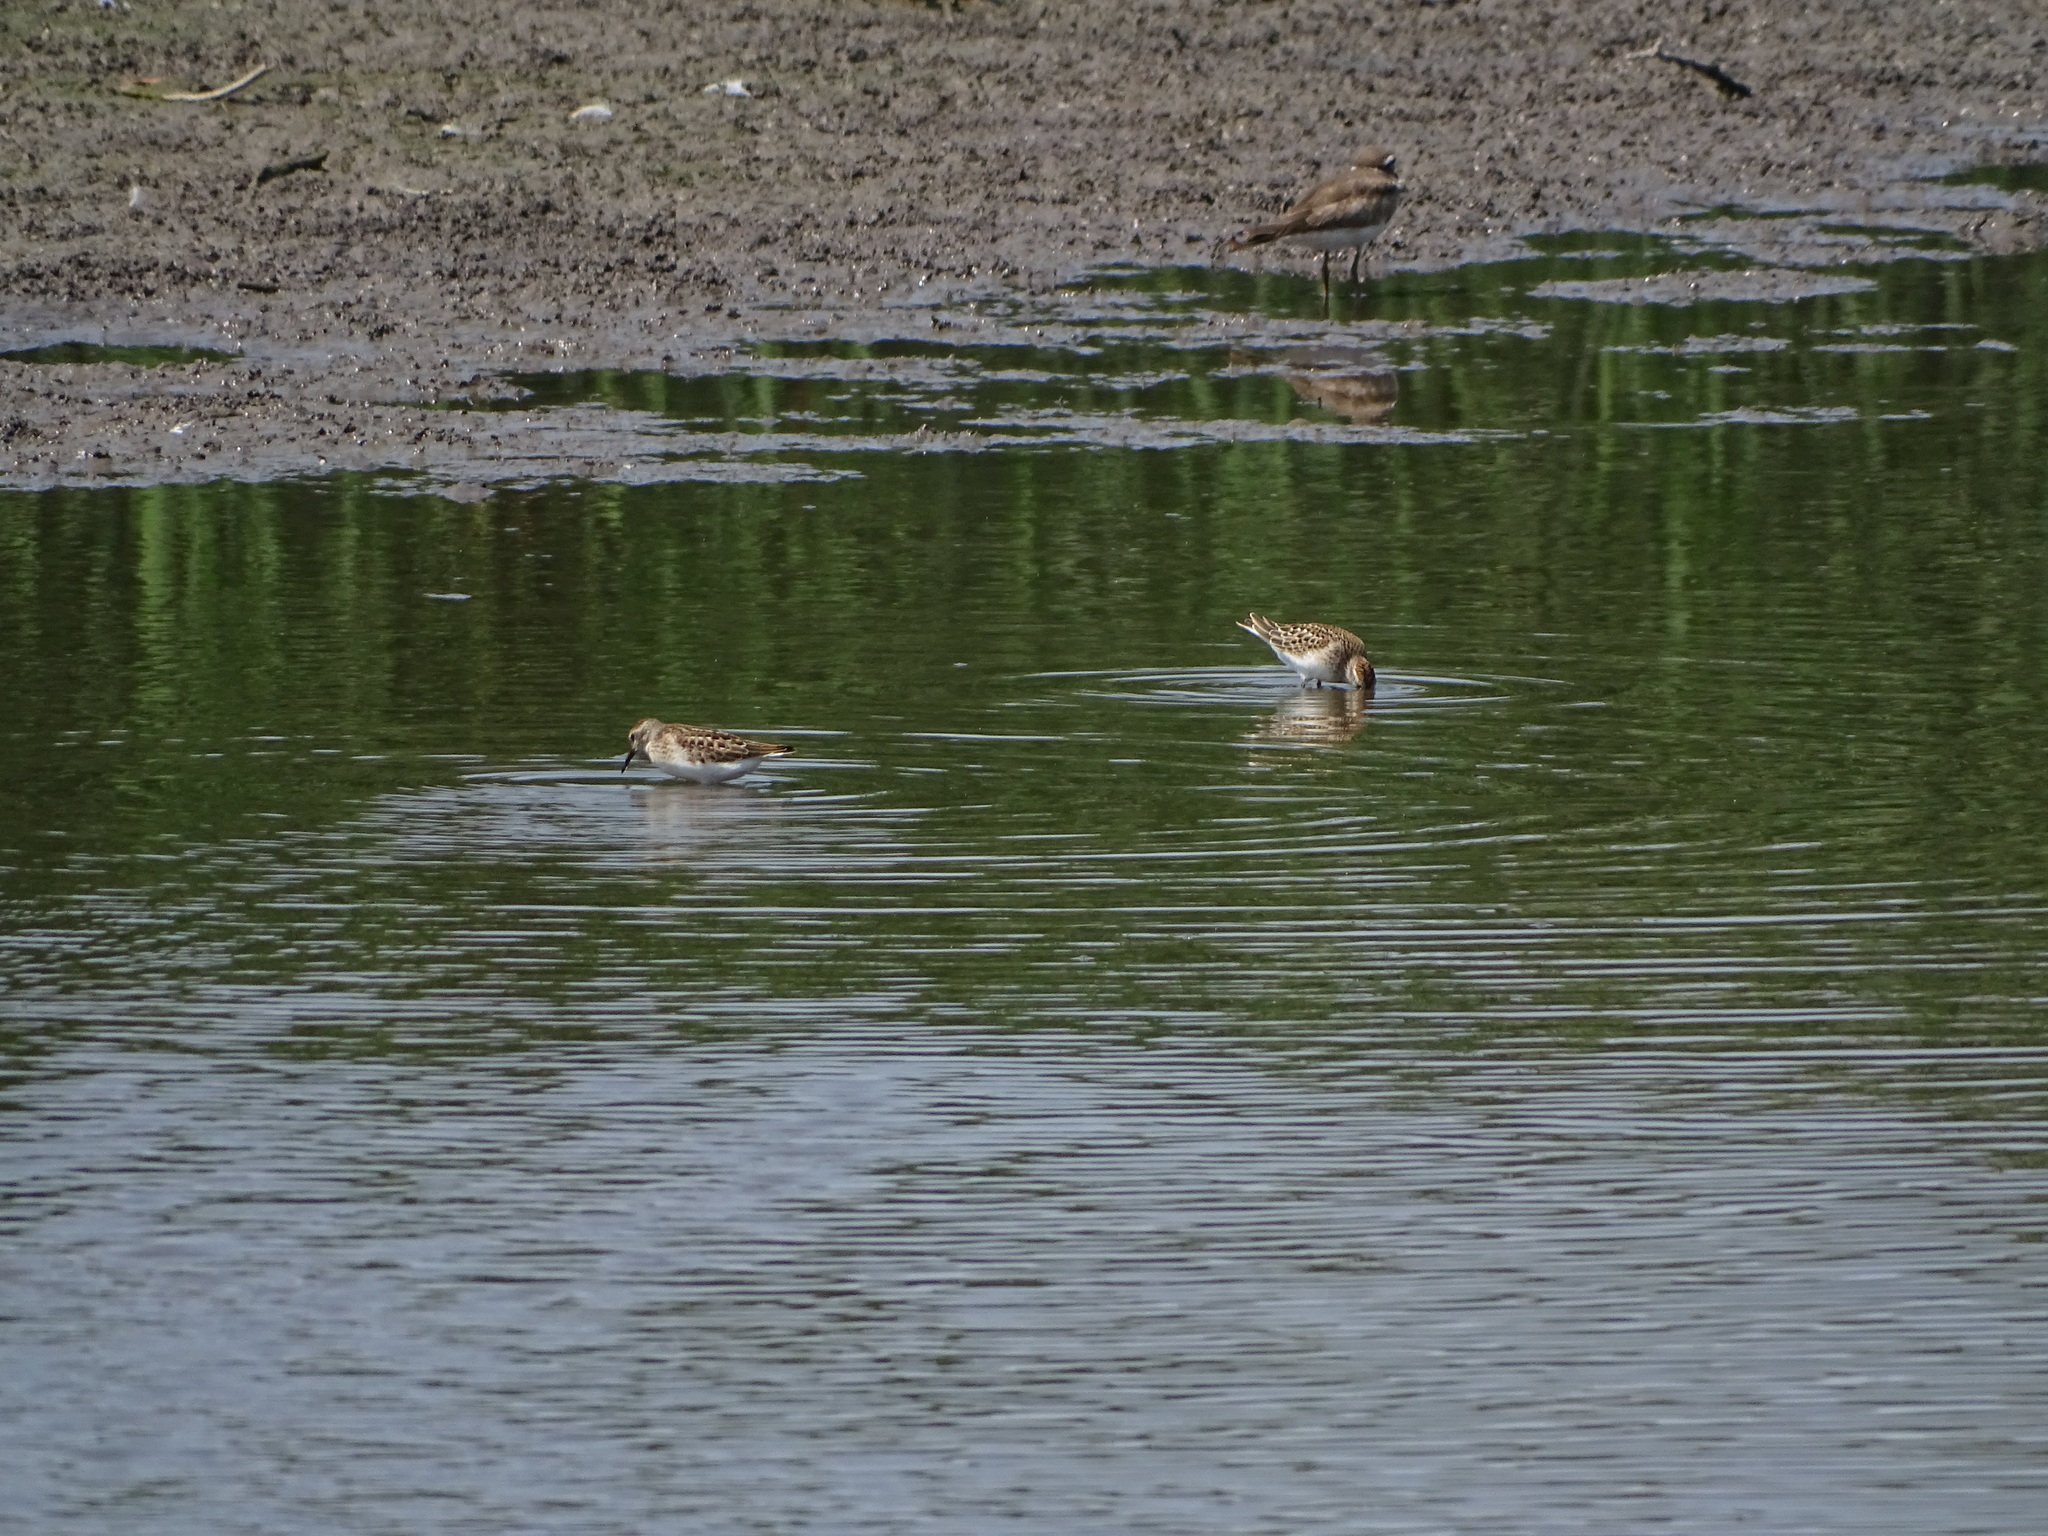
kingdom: Animalia
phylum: Chordata
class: Aves
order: Charadriiformes
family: Scolopacidae
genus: Calidris
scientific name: Calidris minutilla
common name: Least sandpiper
